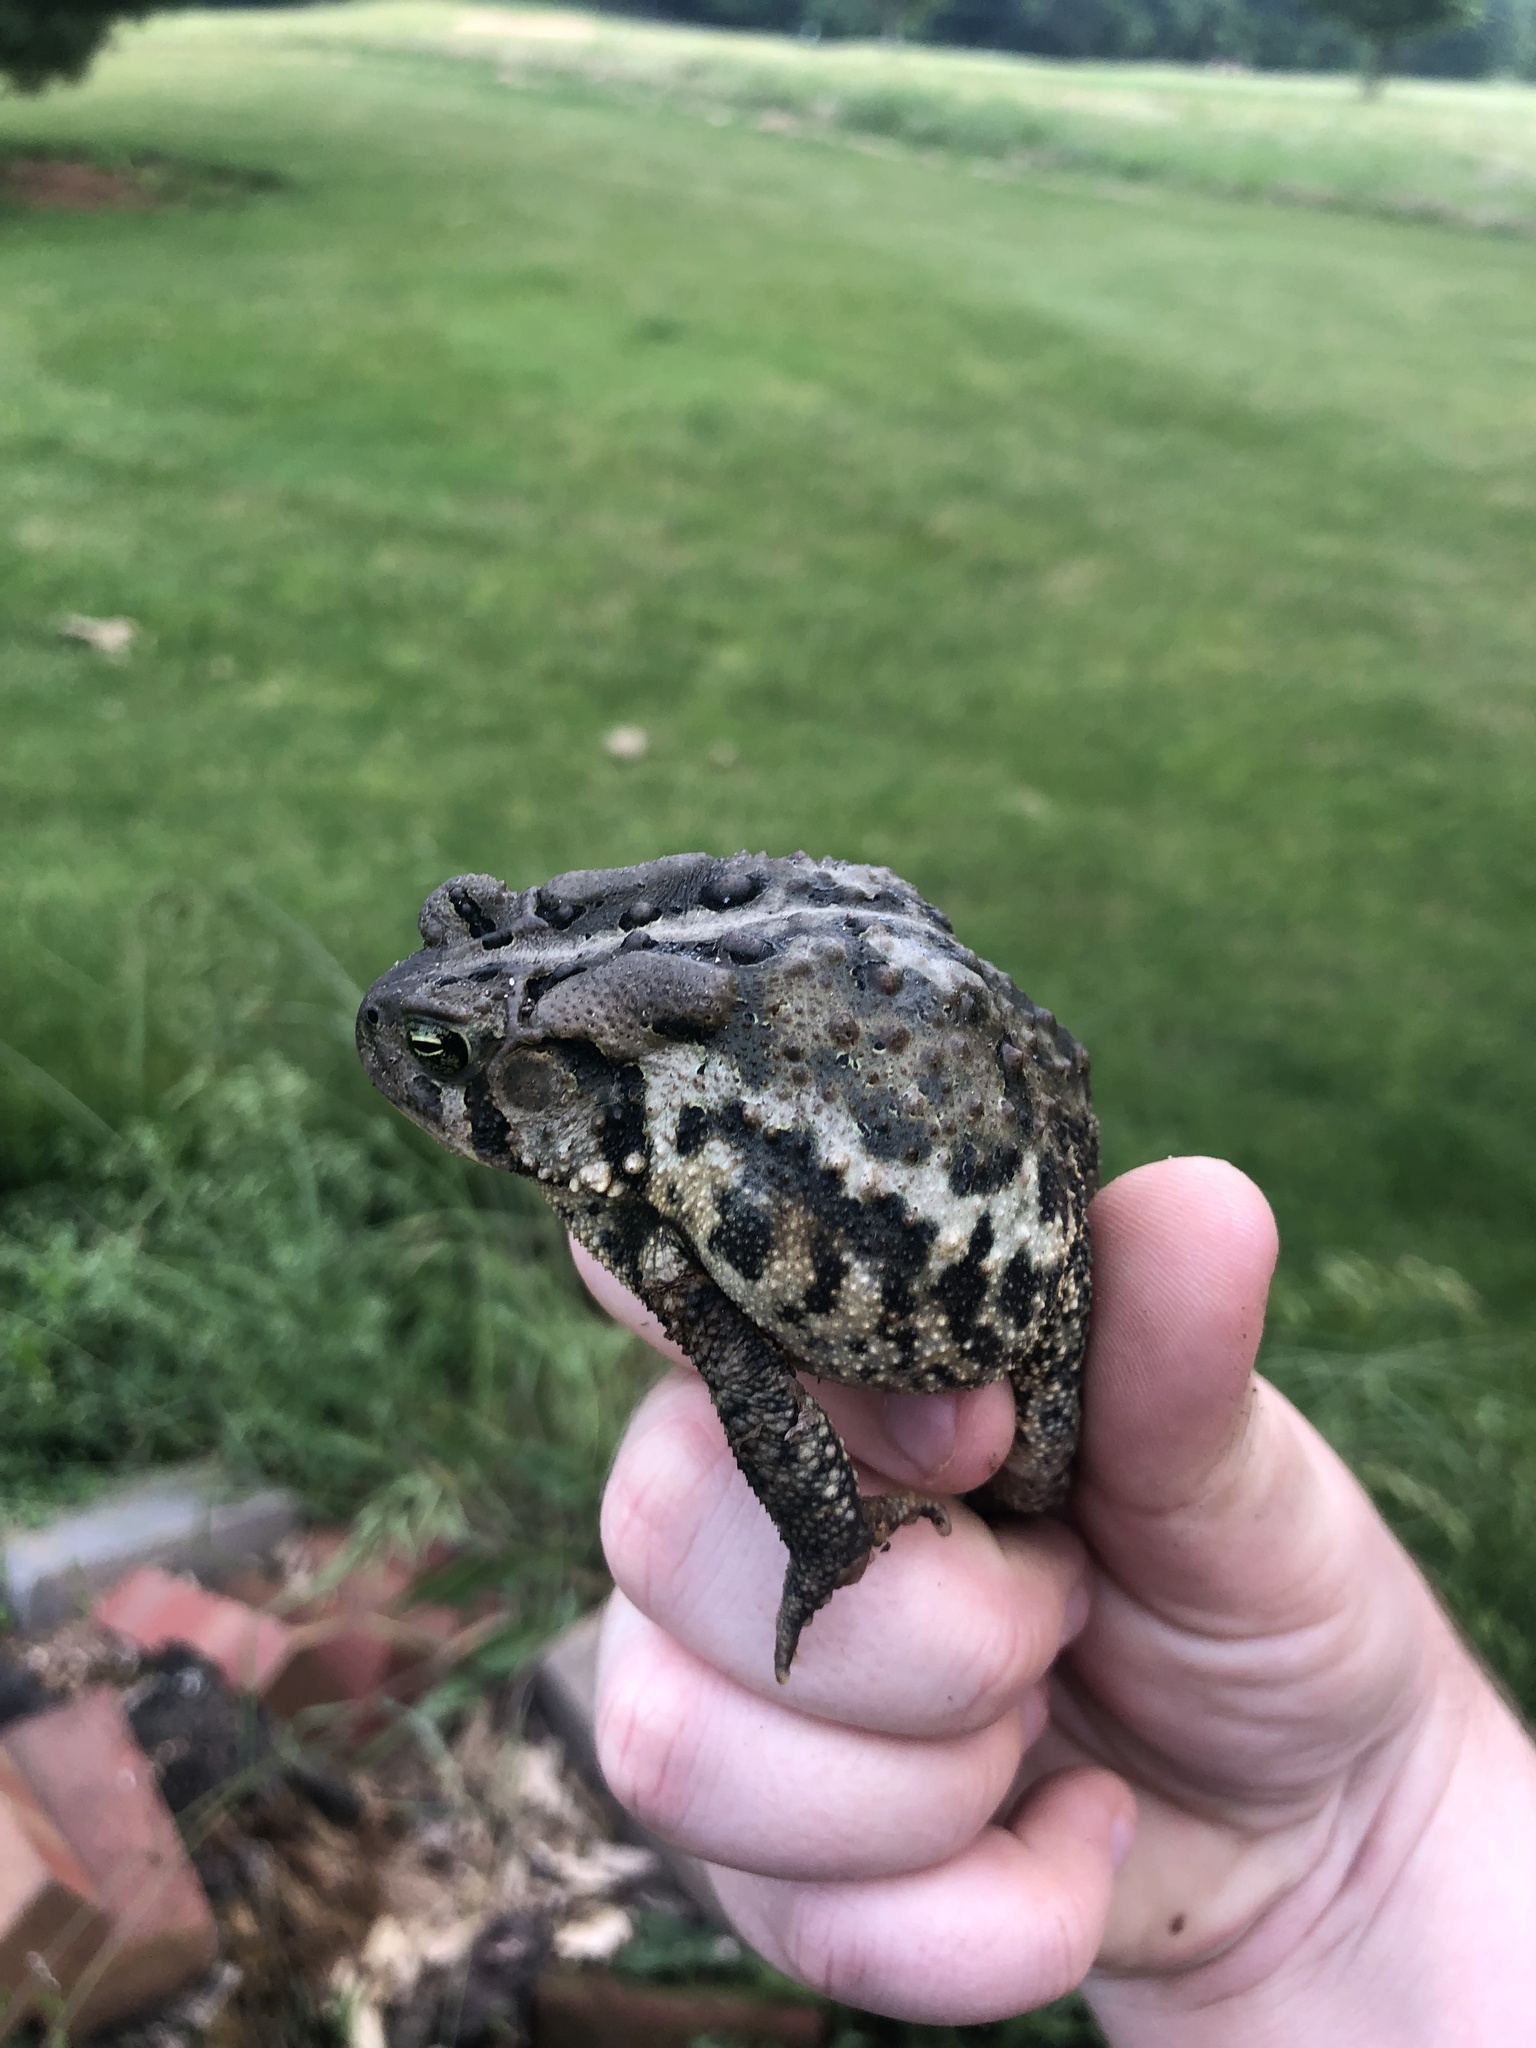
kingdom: Animalia
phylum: Chordata
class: Amphibia
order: Anura
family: Bufonidae
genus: Anaxyrus
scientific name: Anaxyrus americanus
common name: American toad
